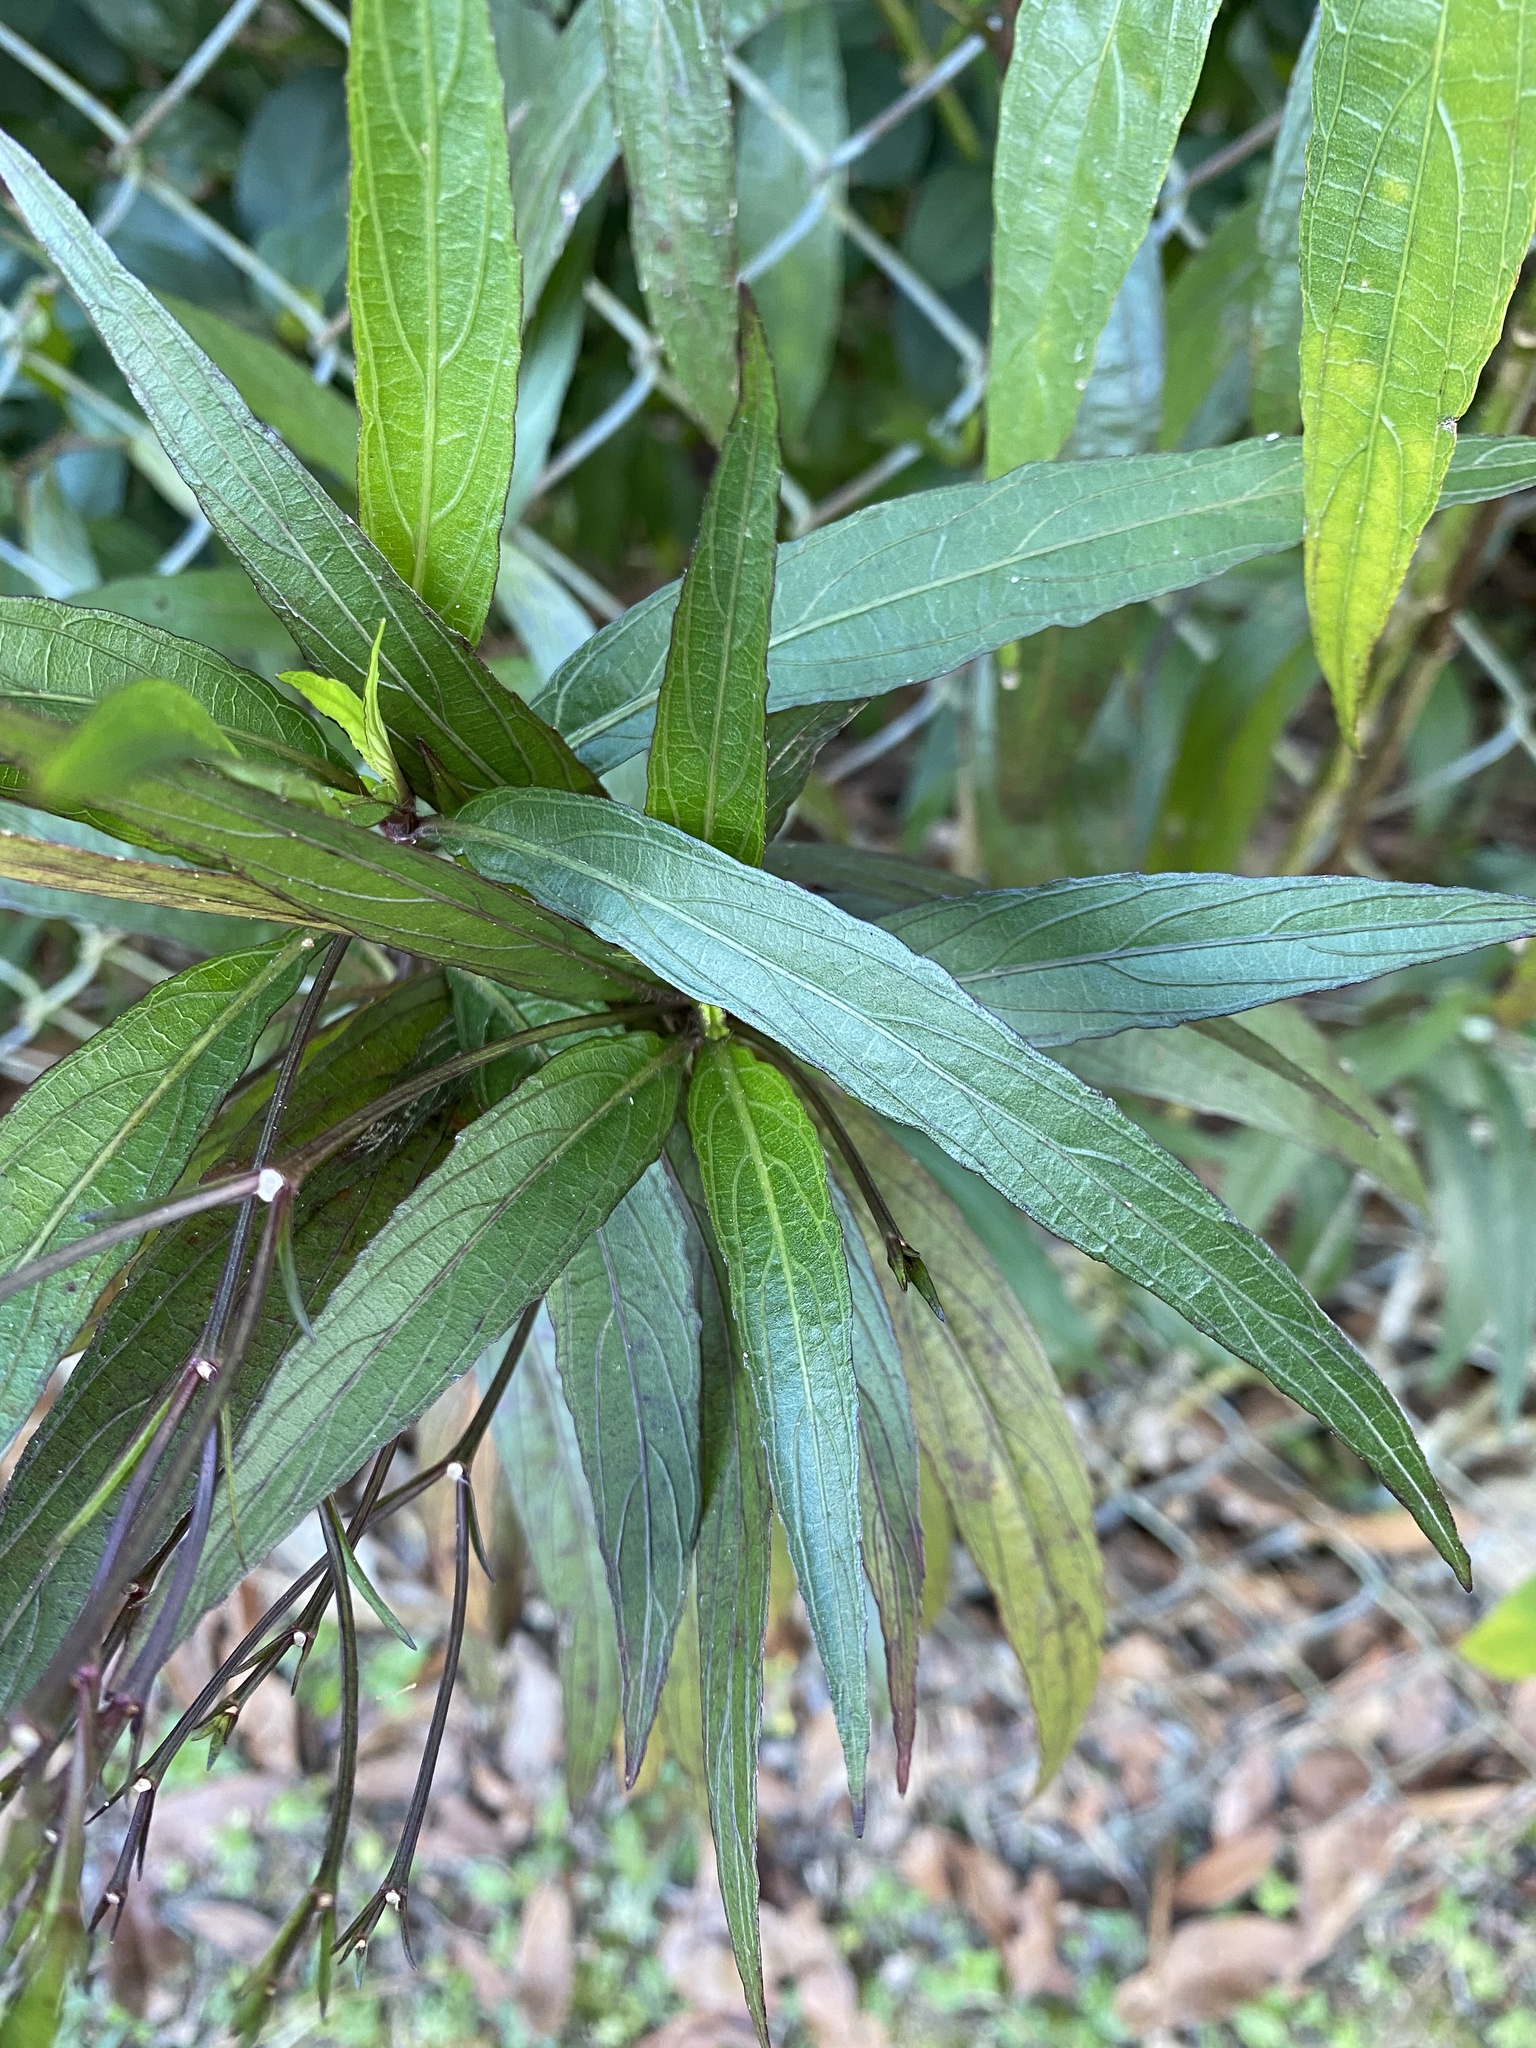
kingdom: Plantae
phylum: Tracheophyta
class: Magnoliopsida
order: Lamiales
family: Acanthaceae
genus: Ruellia
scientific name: Ruellia simplex
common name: Softseed wild petunia
